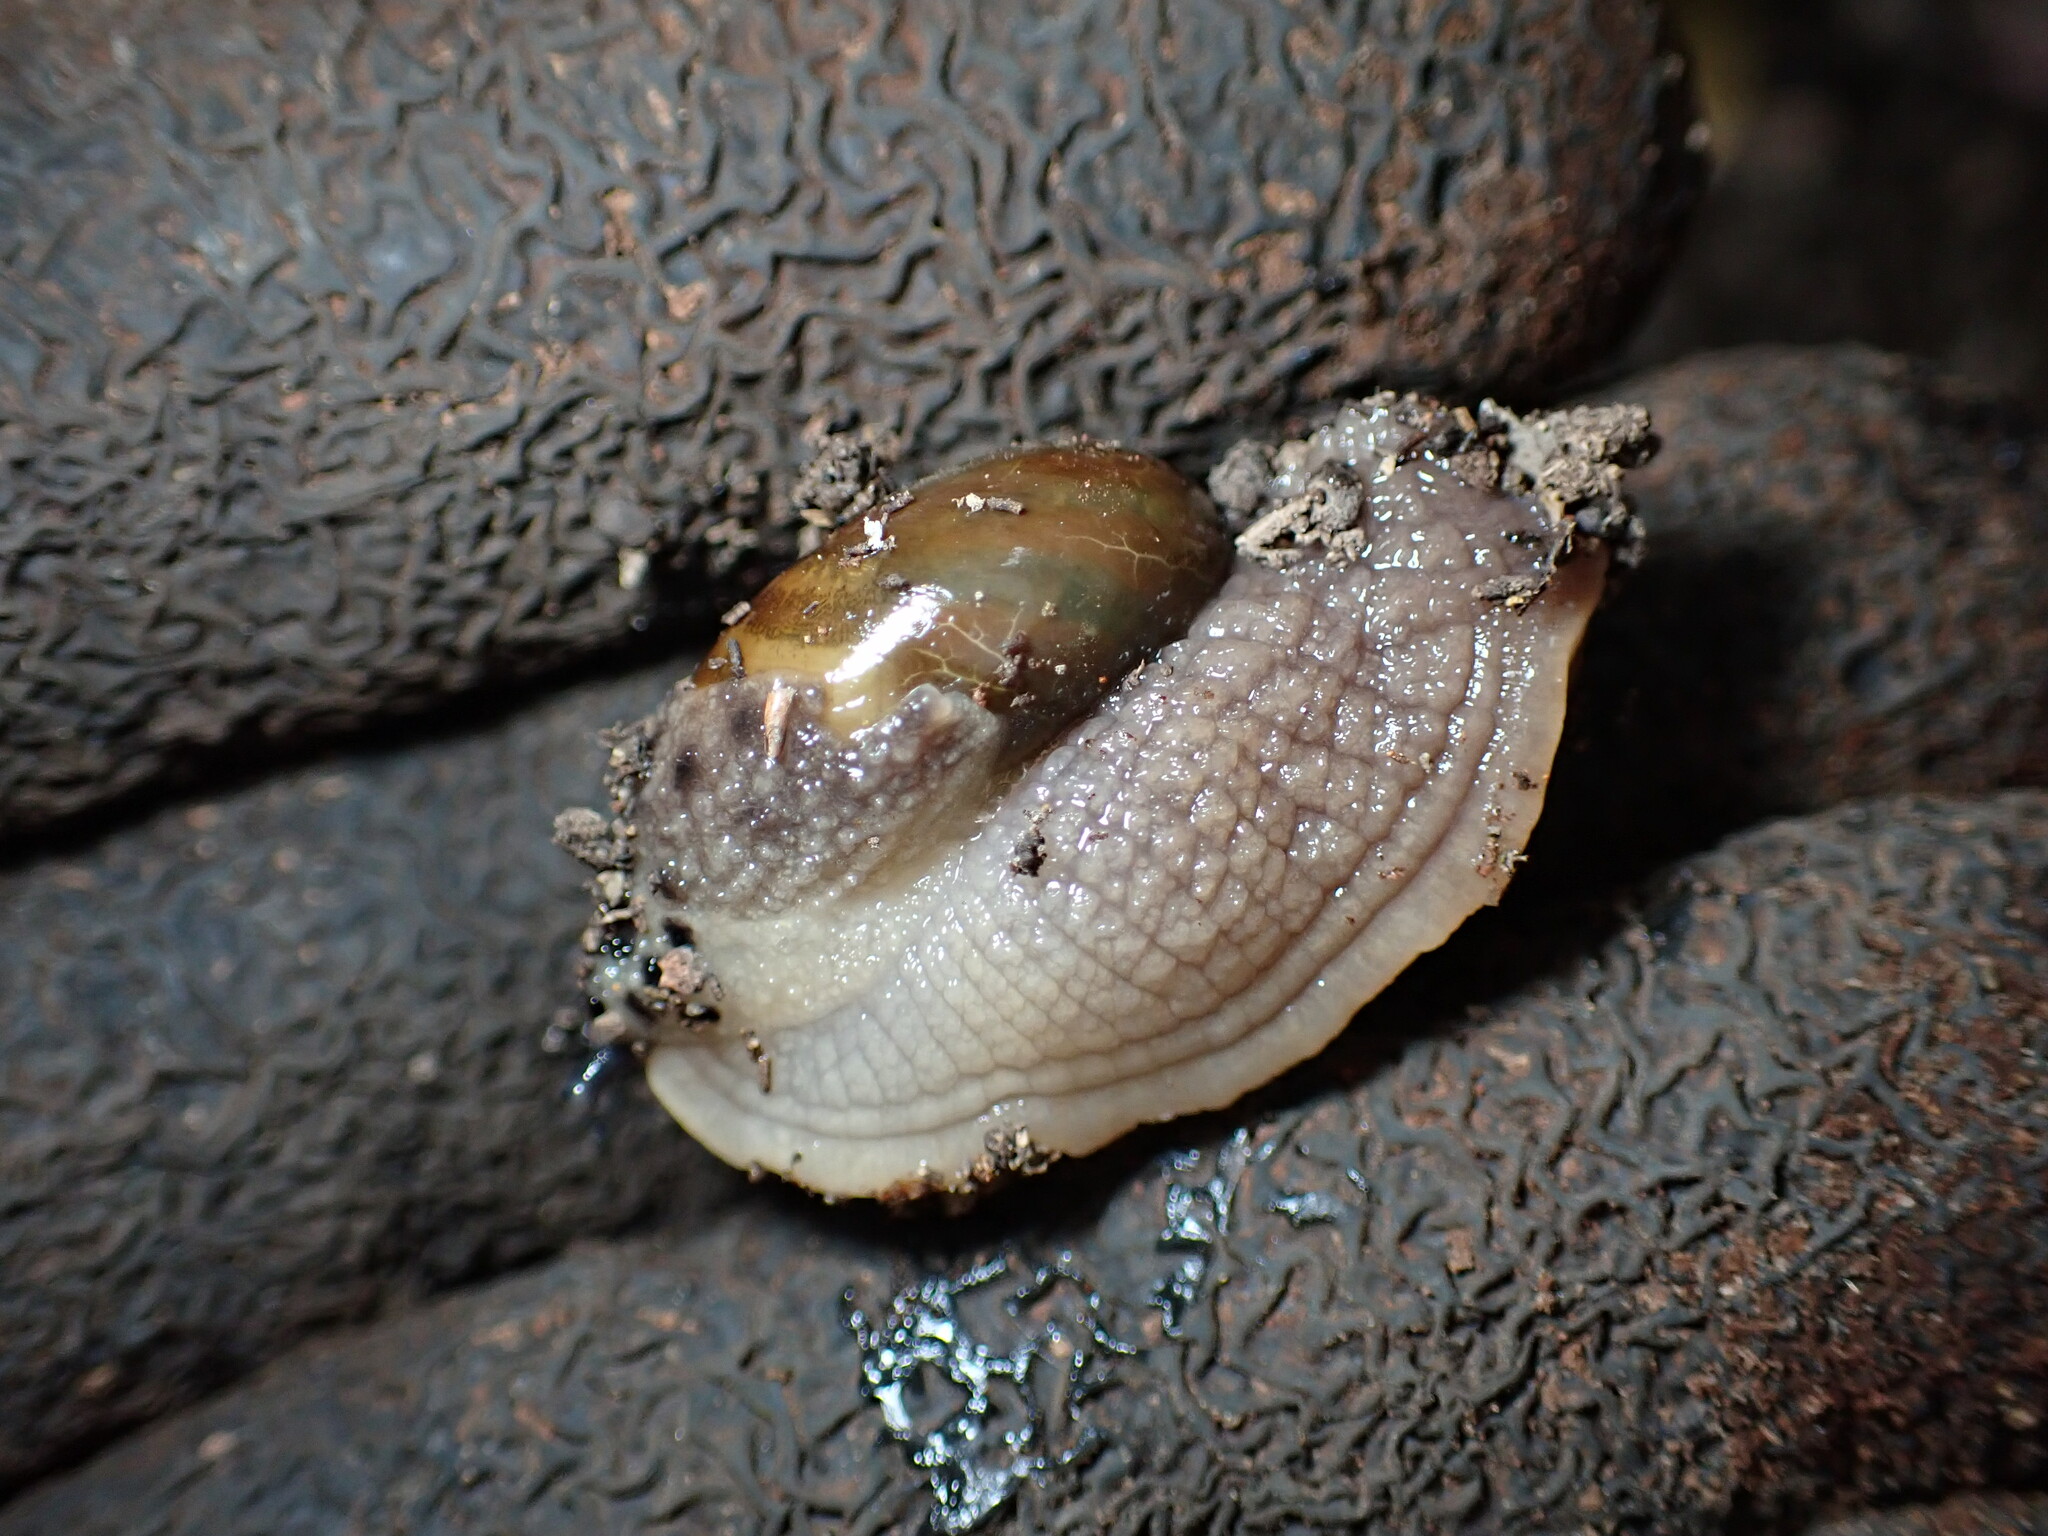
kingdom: Animalia
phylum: Mollusca
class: Gastropoda
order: Stylommatophora
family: Helicarionidae
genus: Stanisicarion
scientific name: Stanisicarion aquila
